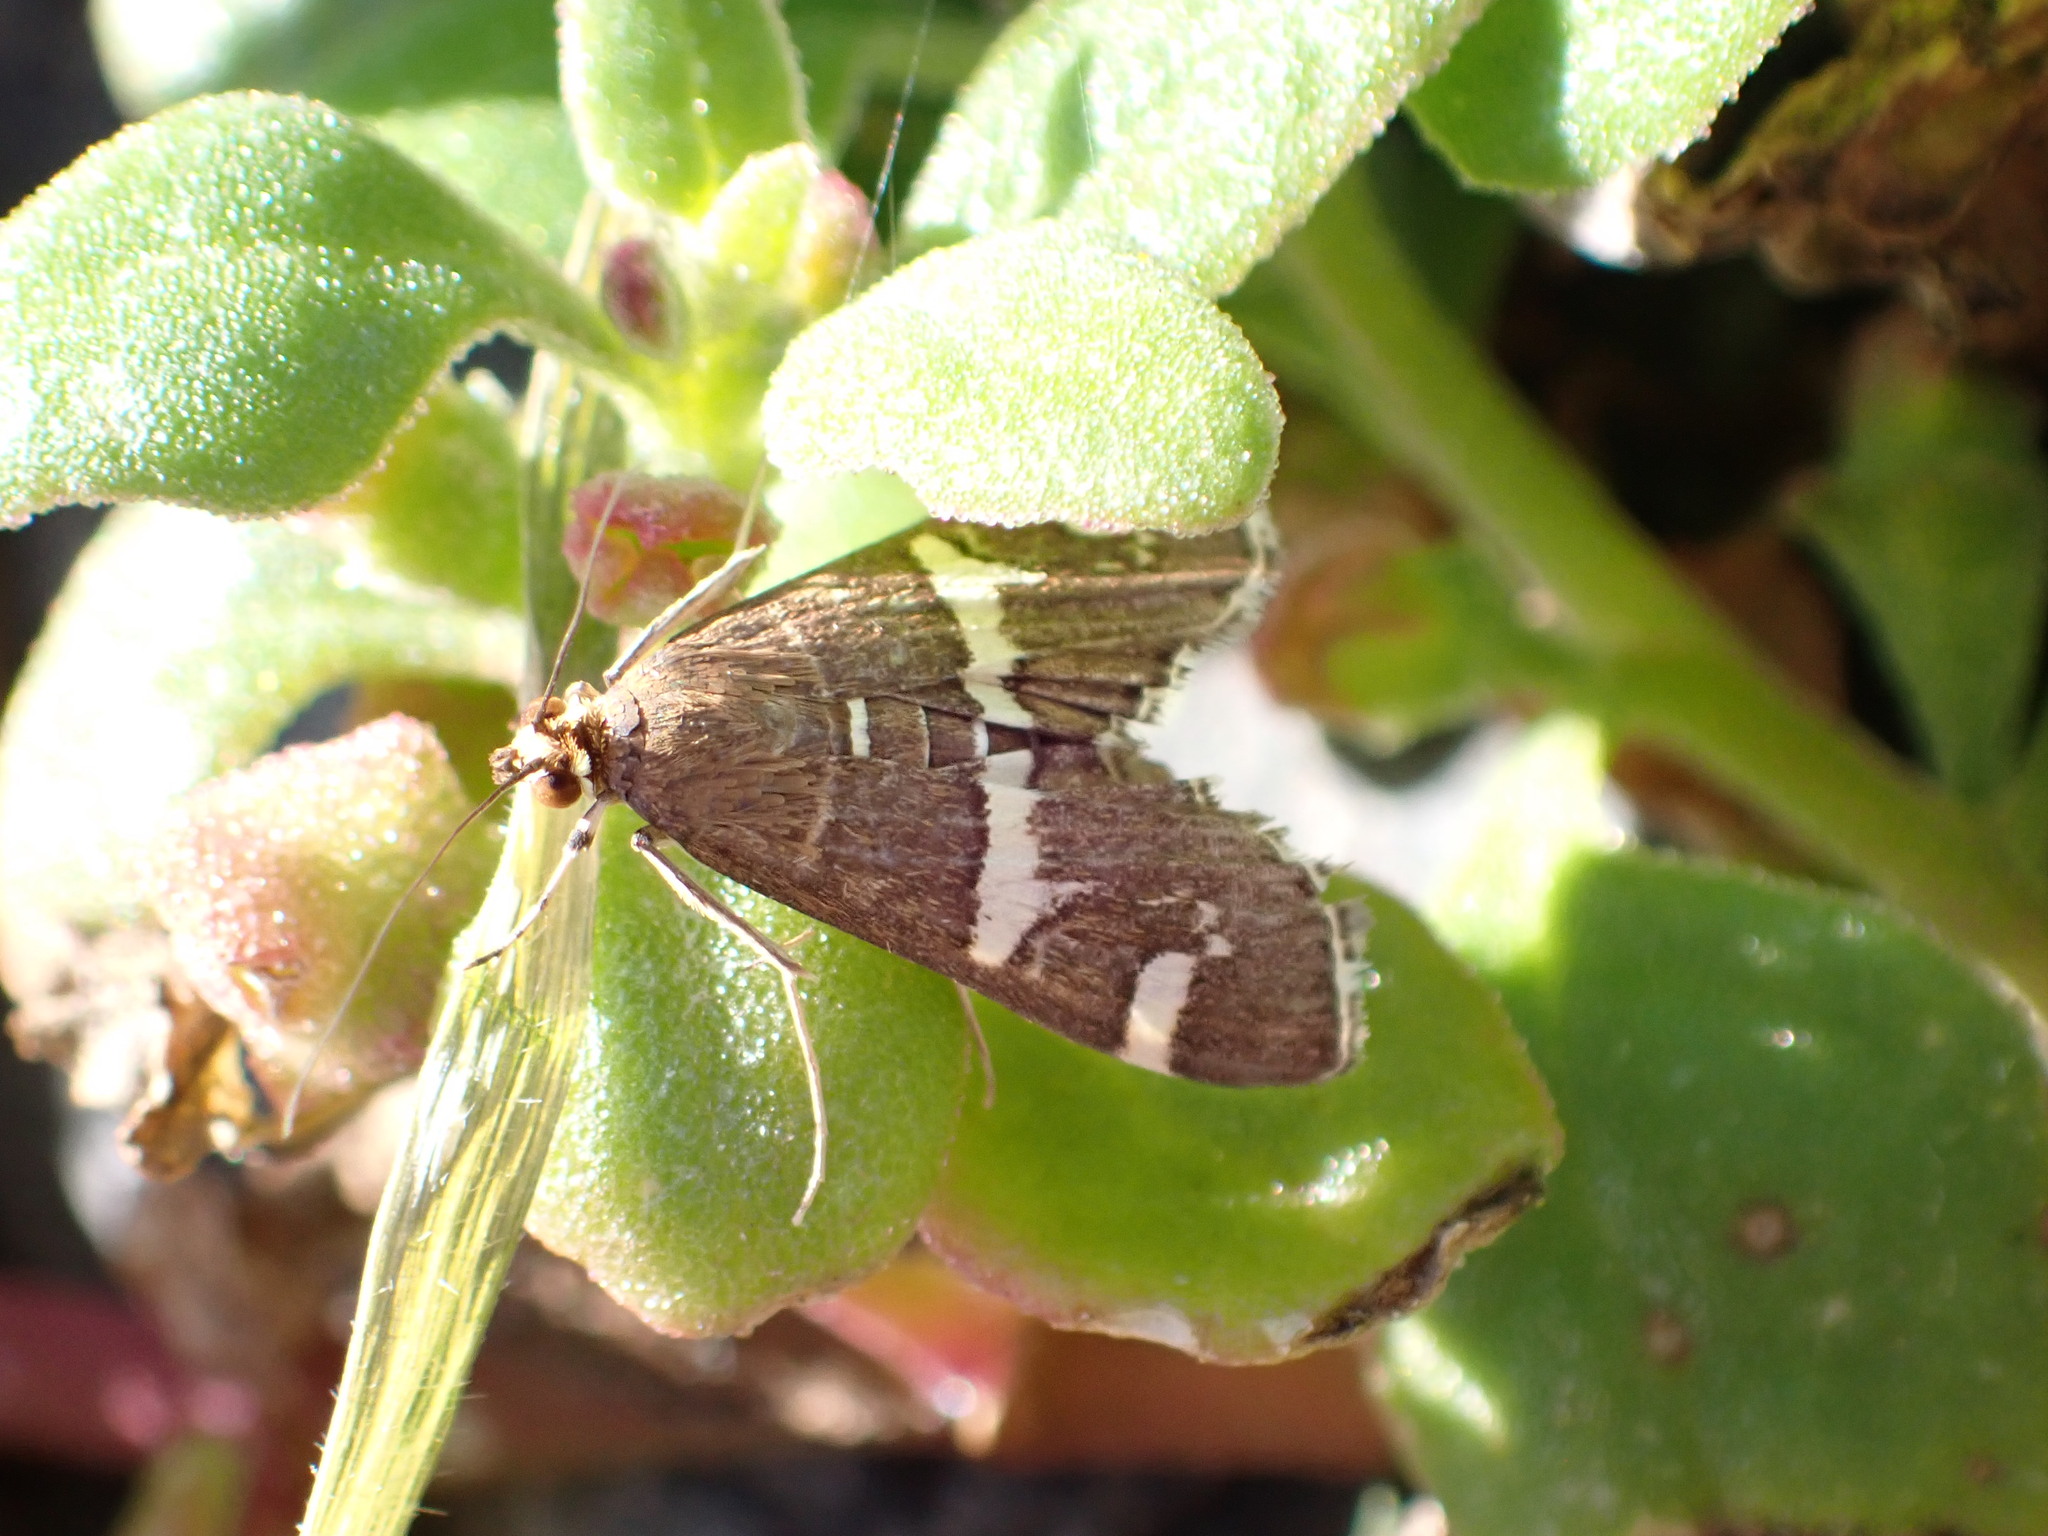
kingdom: Animalia
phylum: Arthropoda
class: Insecta
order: Lepidoptera
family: Crambidae
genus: Spoladea
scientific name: Spoladea recurvalis
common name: Beet webworm moth
